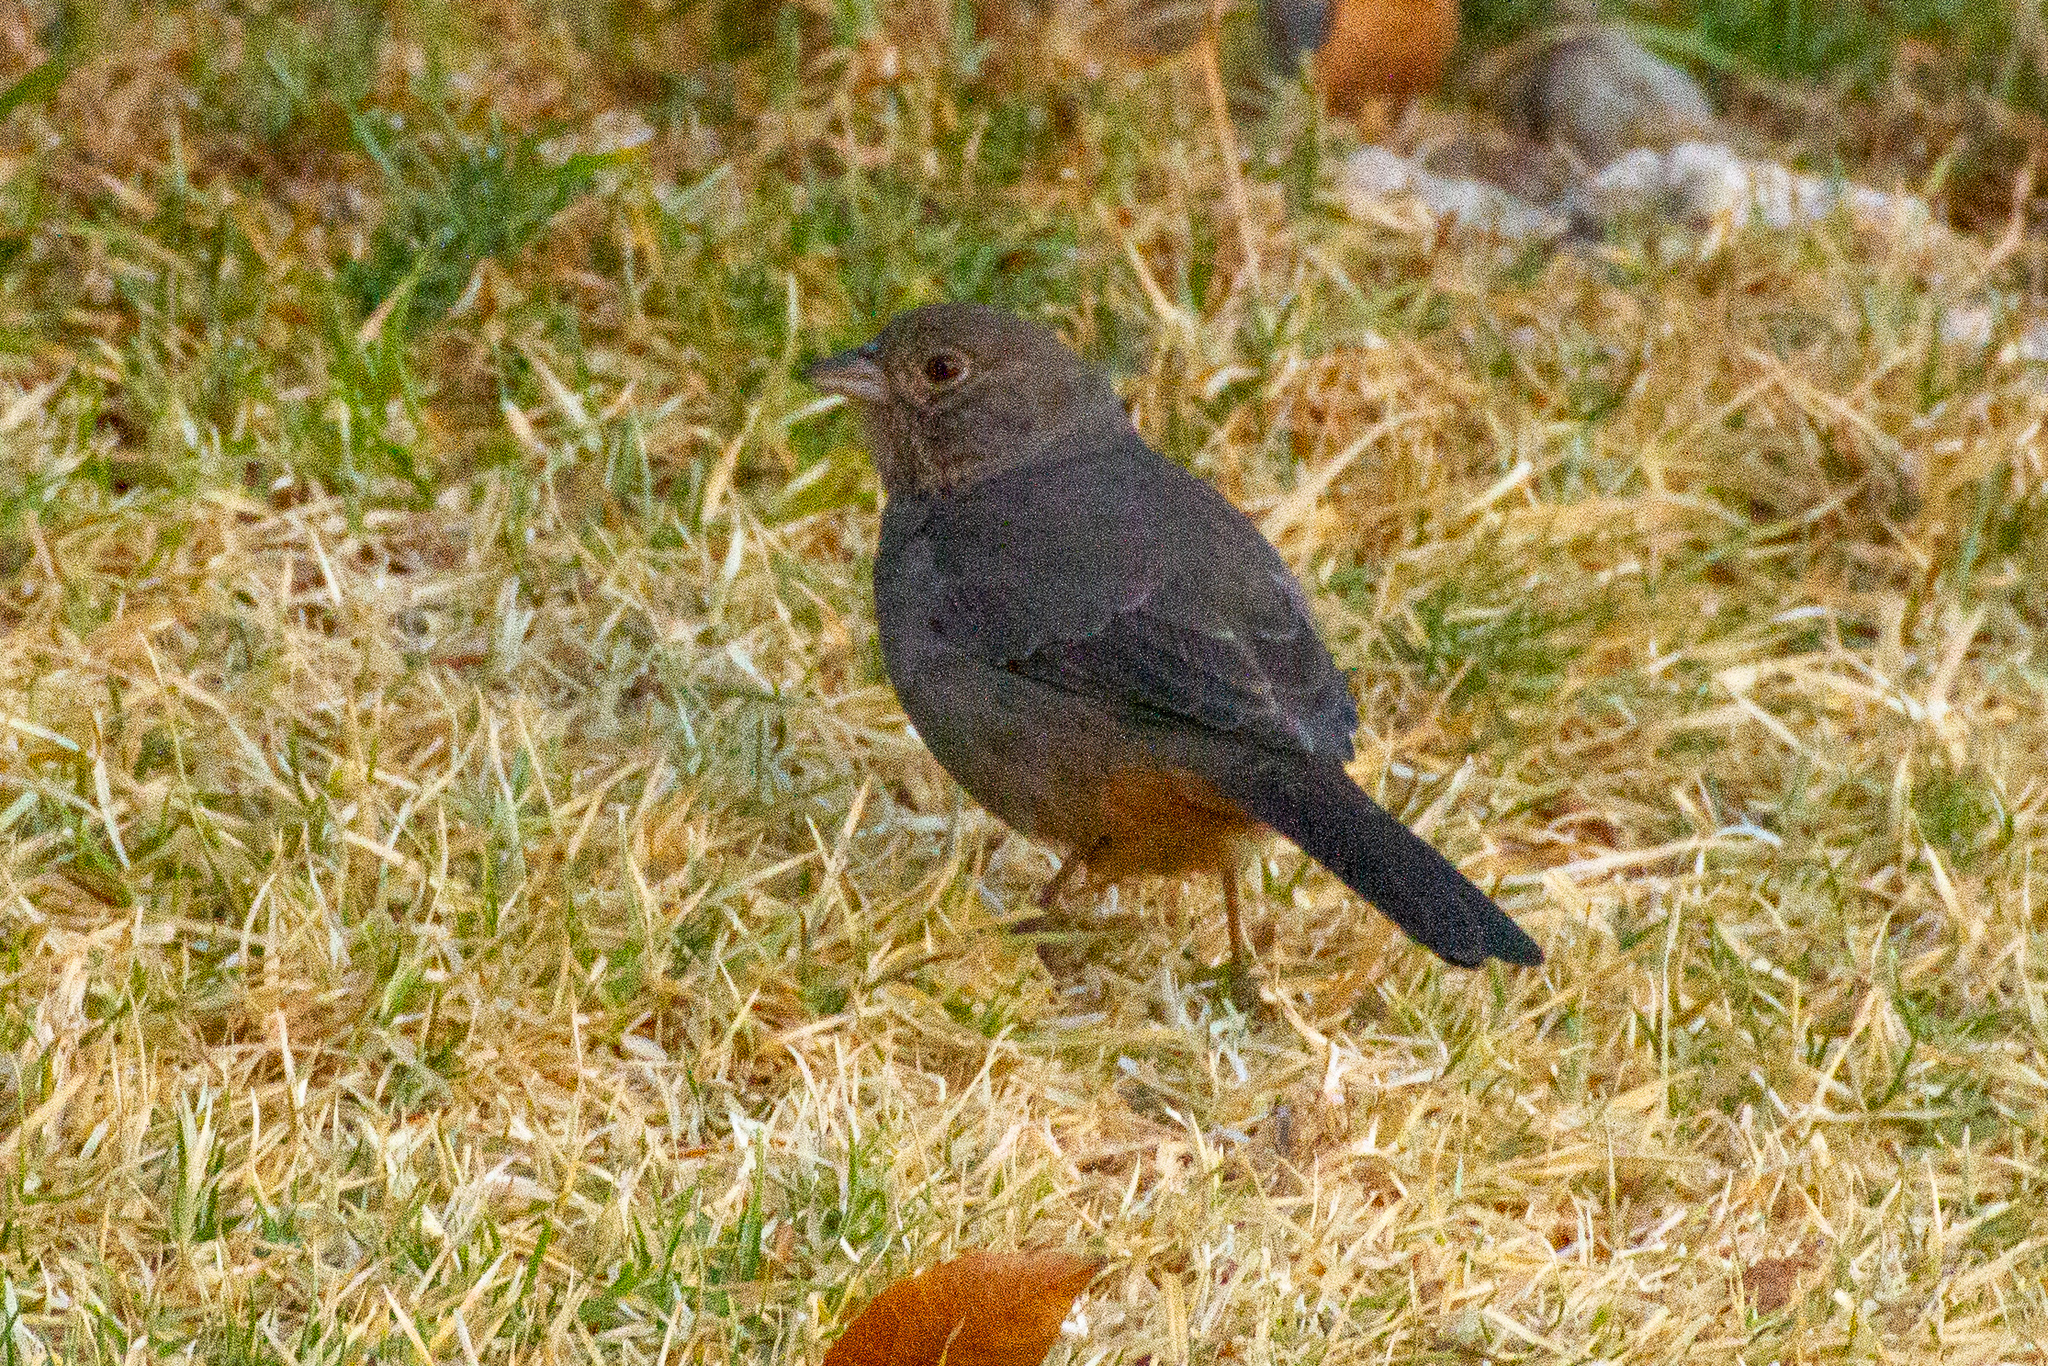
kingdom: Animalia
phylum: Chordata
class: Aves
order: Passeriformes
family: Passerellidae
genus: Melozone
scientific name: Melozone fusca
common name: Canyon towhee
